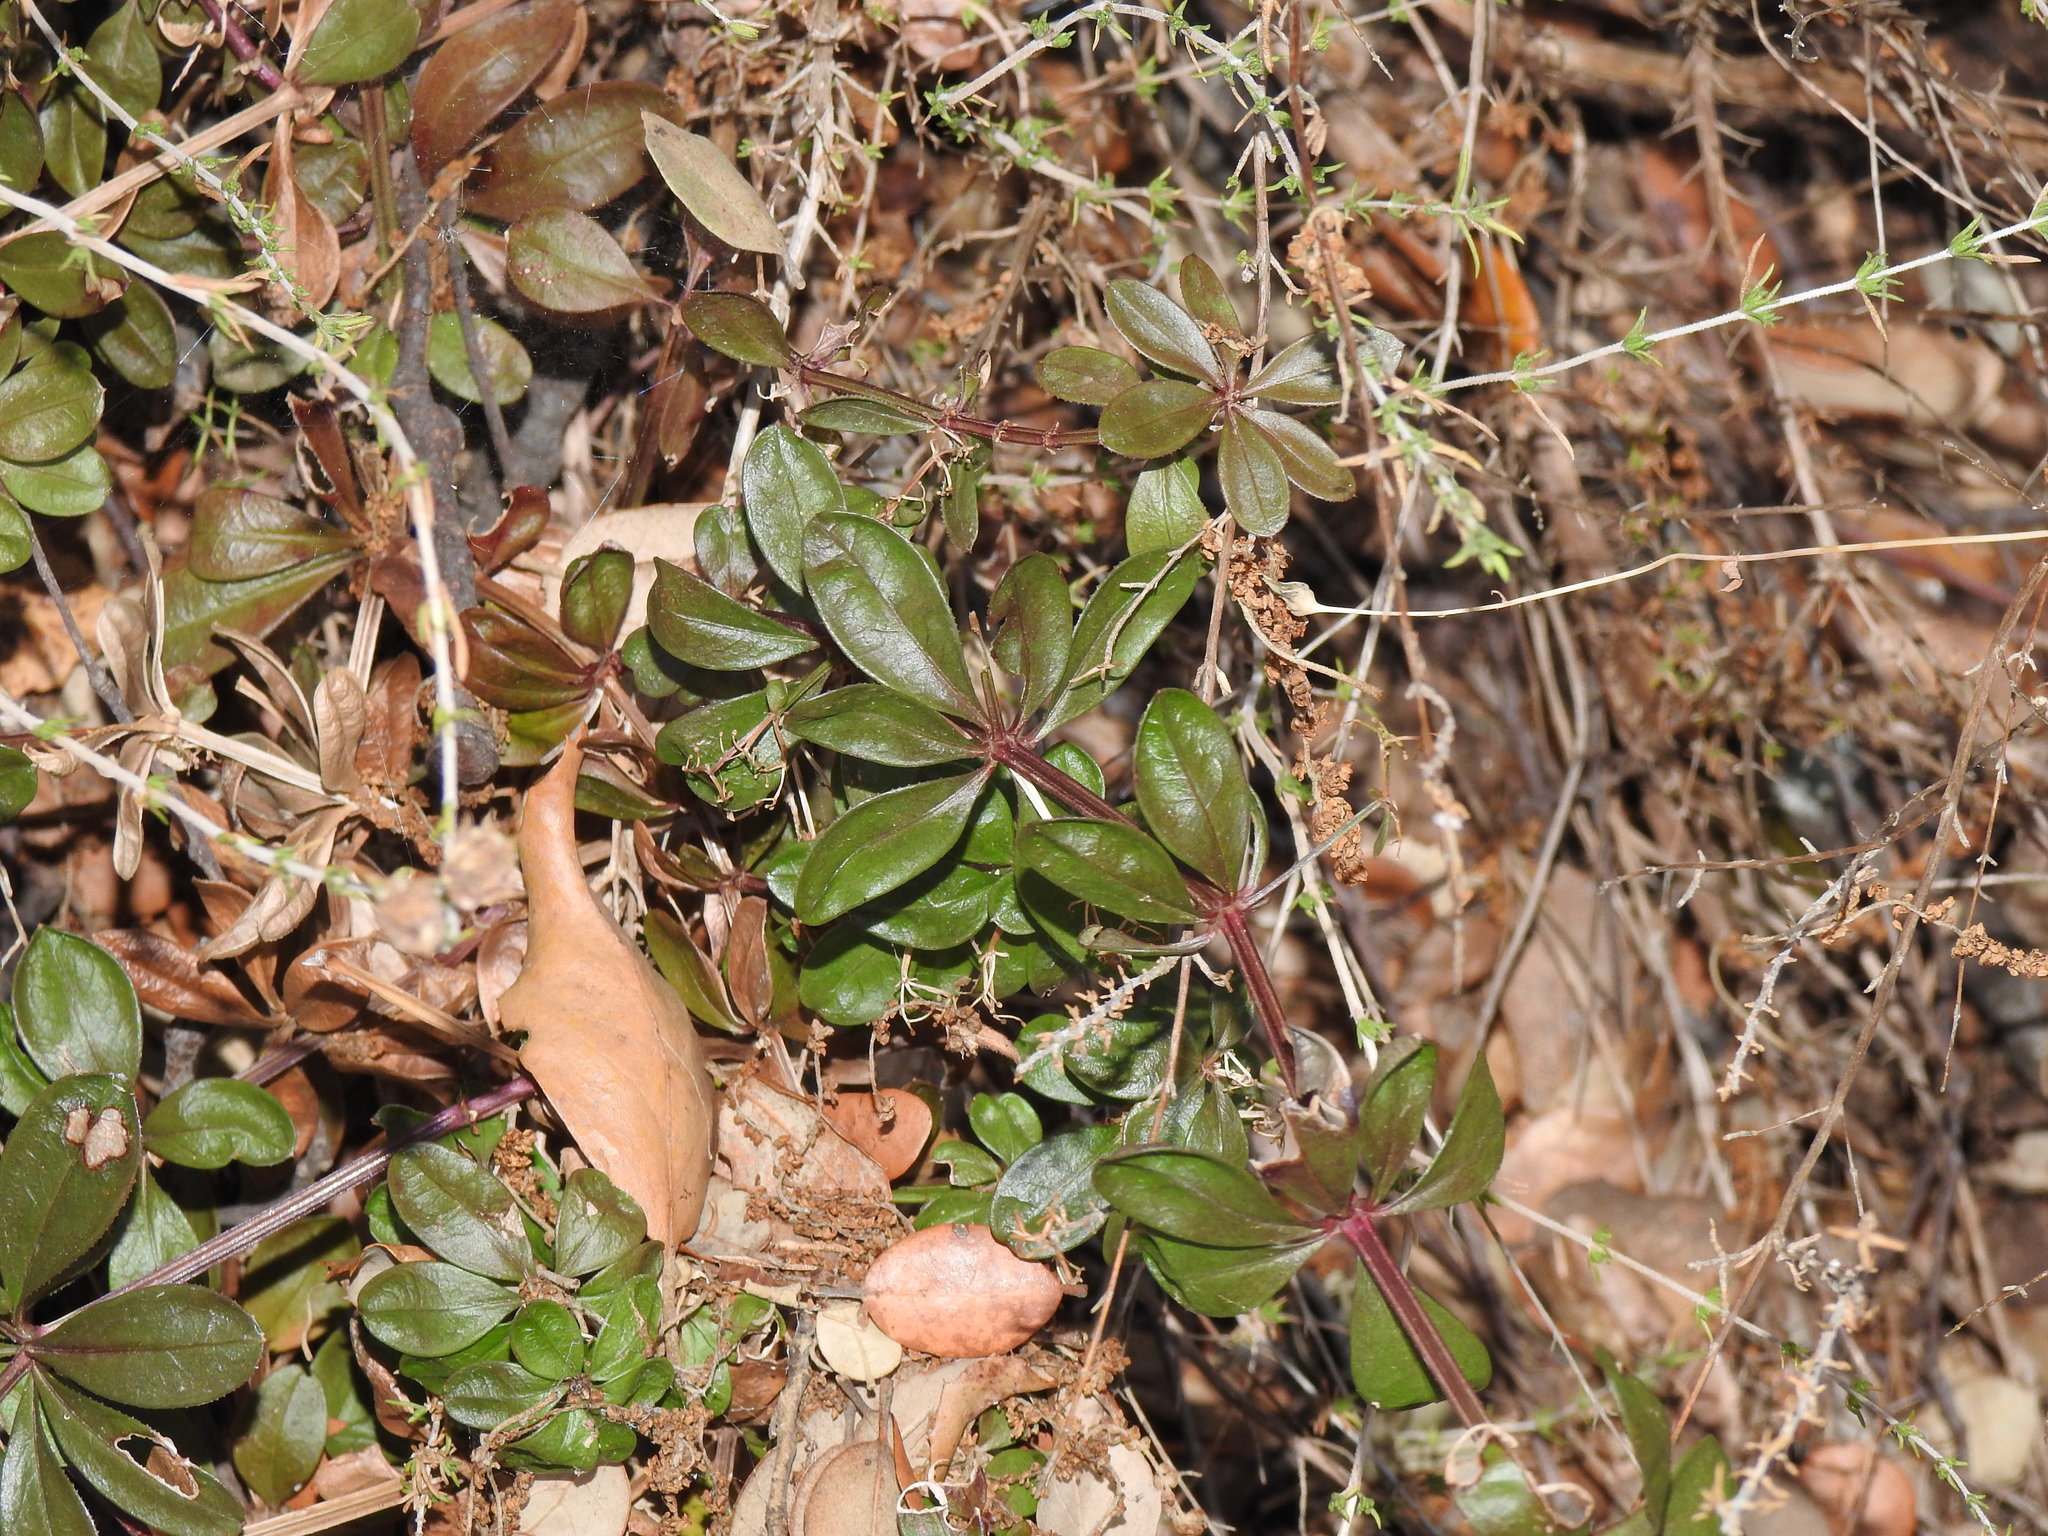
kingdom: Plantae
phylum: Tracheophyta
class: Magnoliopsida
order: Gentianales
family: Rubiaceae
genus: Rubia
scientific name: Rubia peregrina
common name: Wild madder
